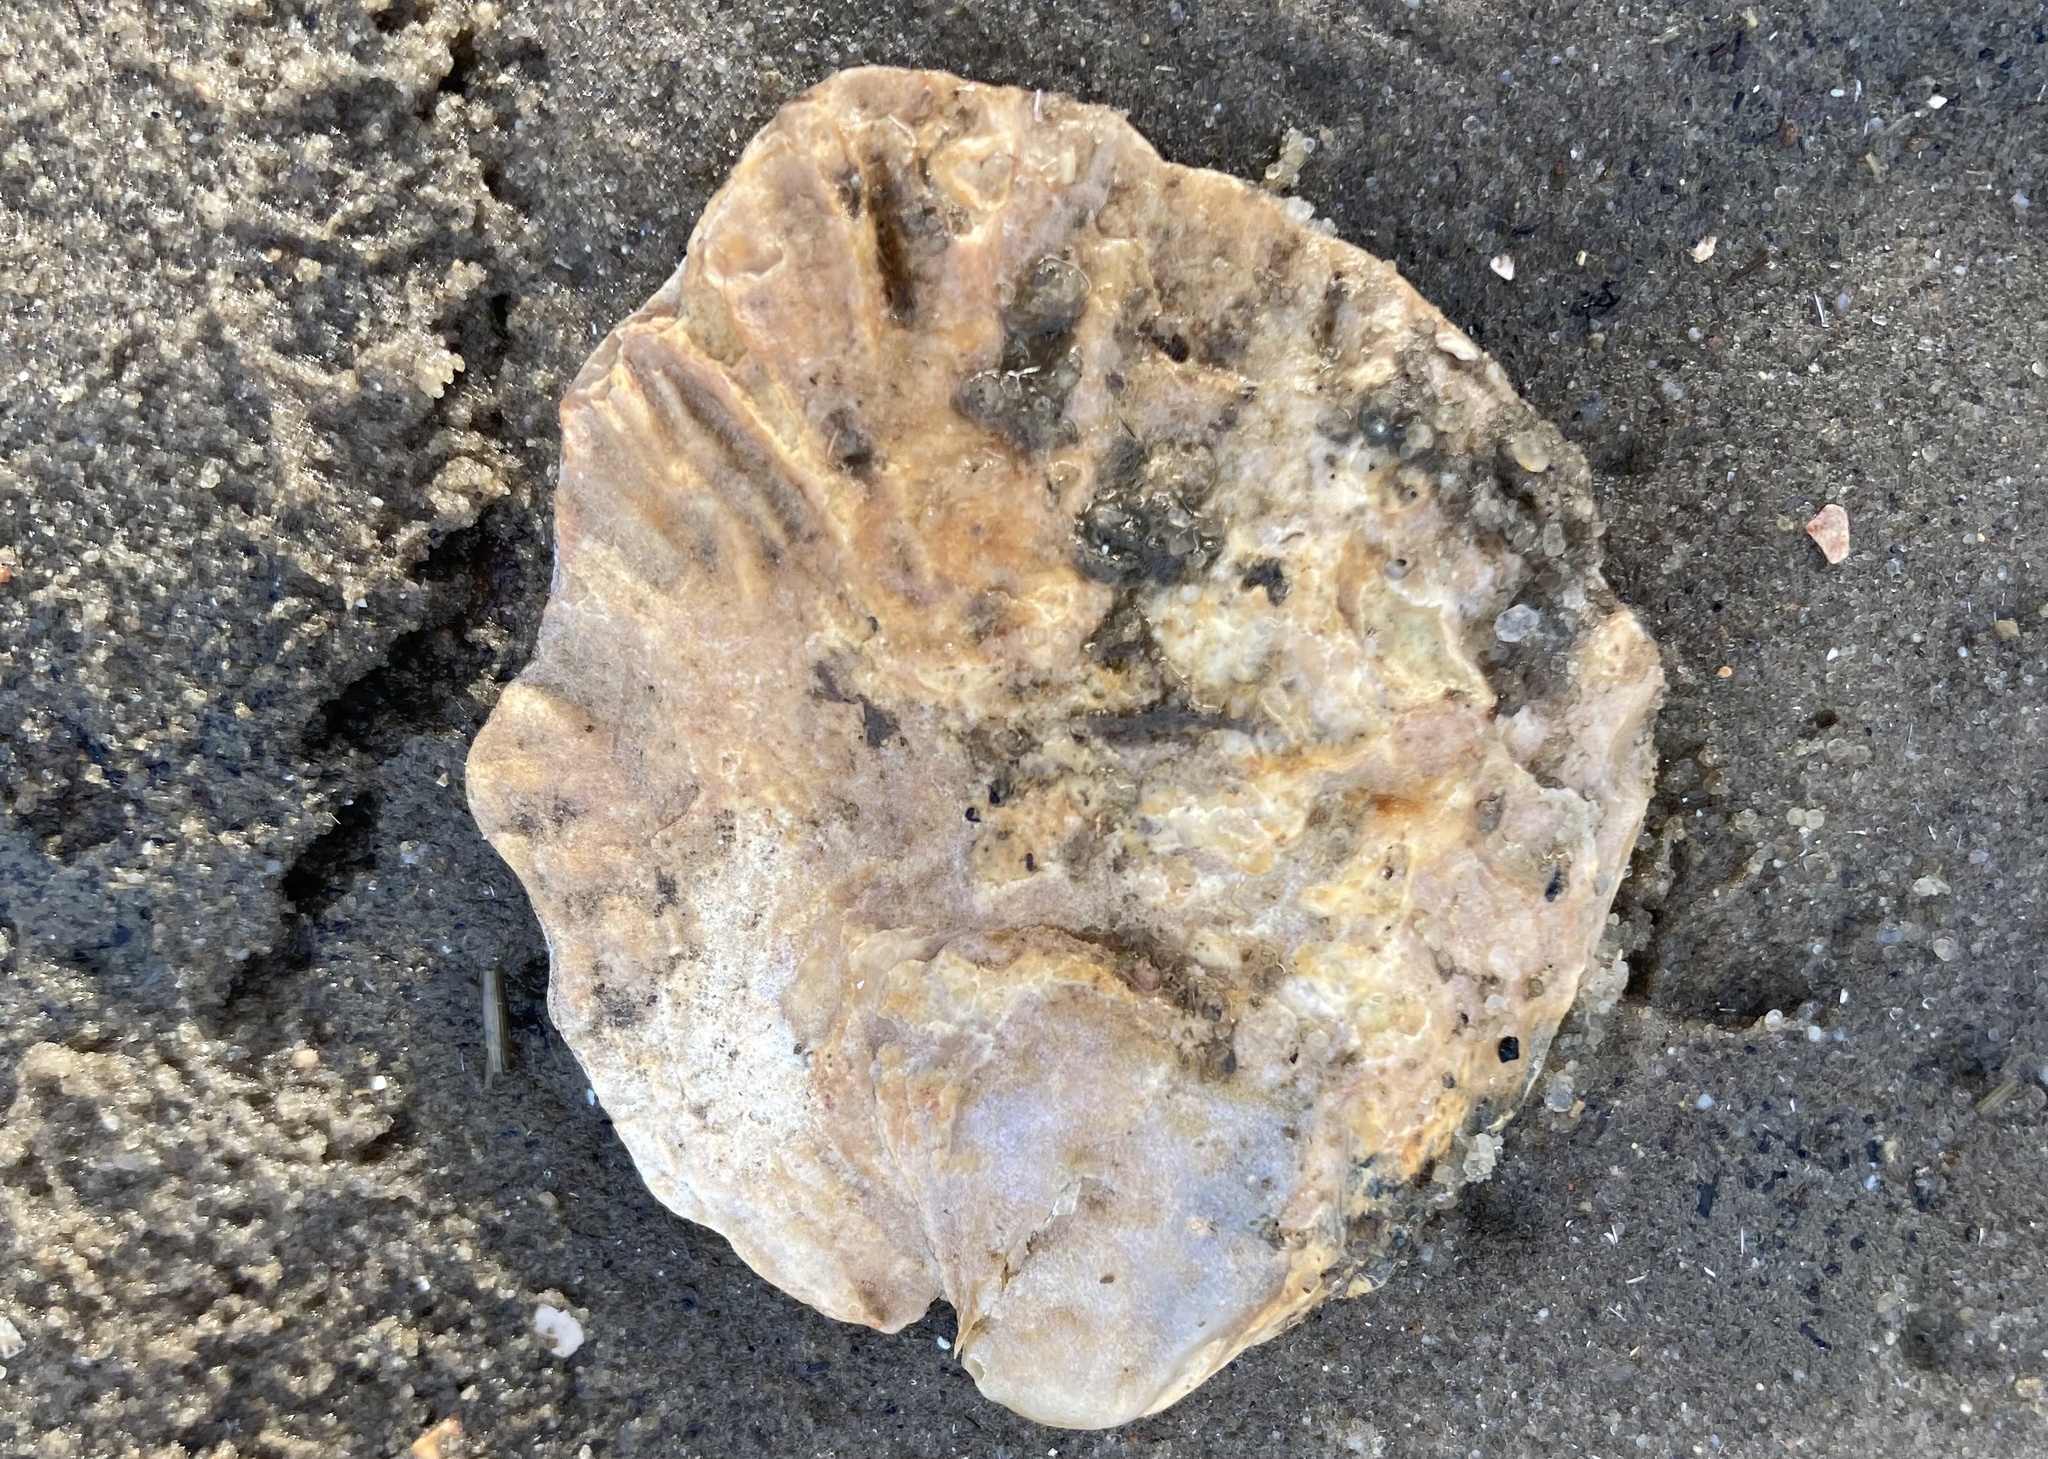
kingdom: Animalia
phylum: Mollusca
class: Bivalvia
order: Ostreida
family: Ostreidae
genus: Ostrea
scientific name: Ostrea edulis
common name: Flat oyster
